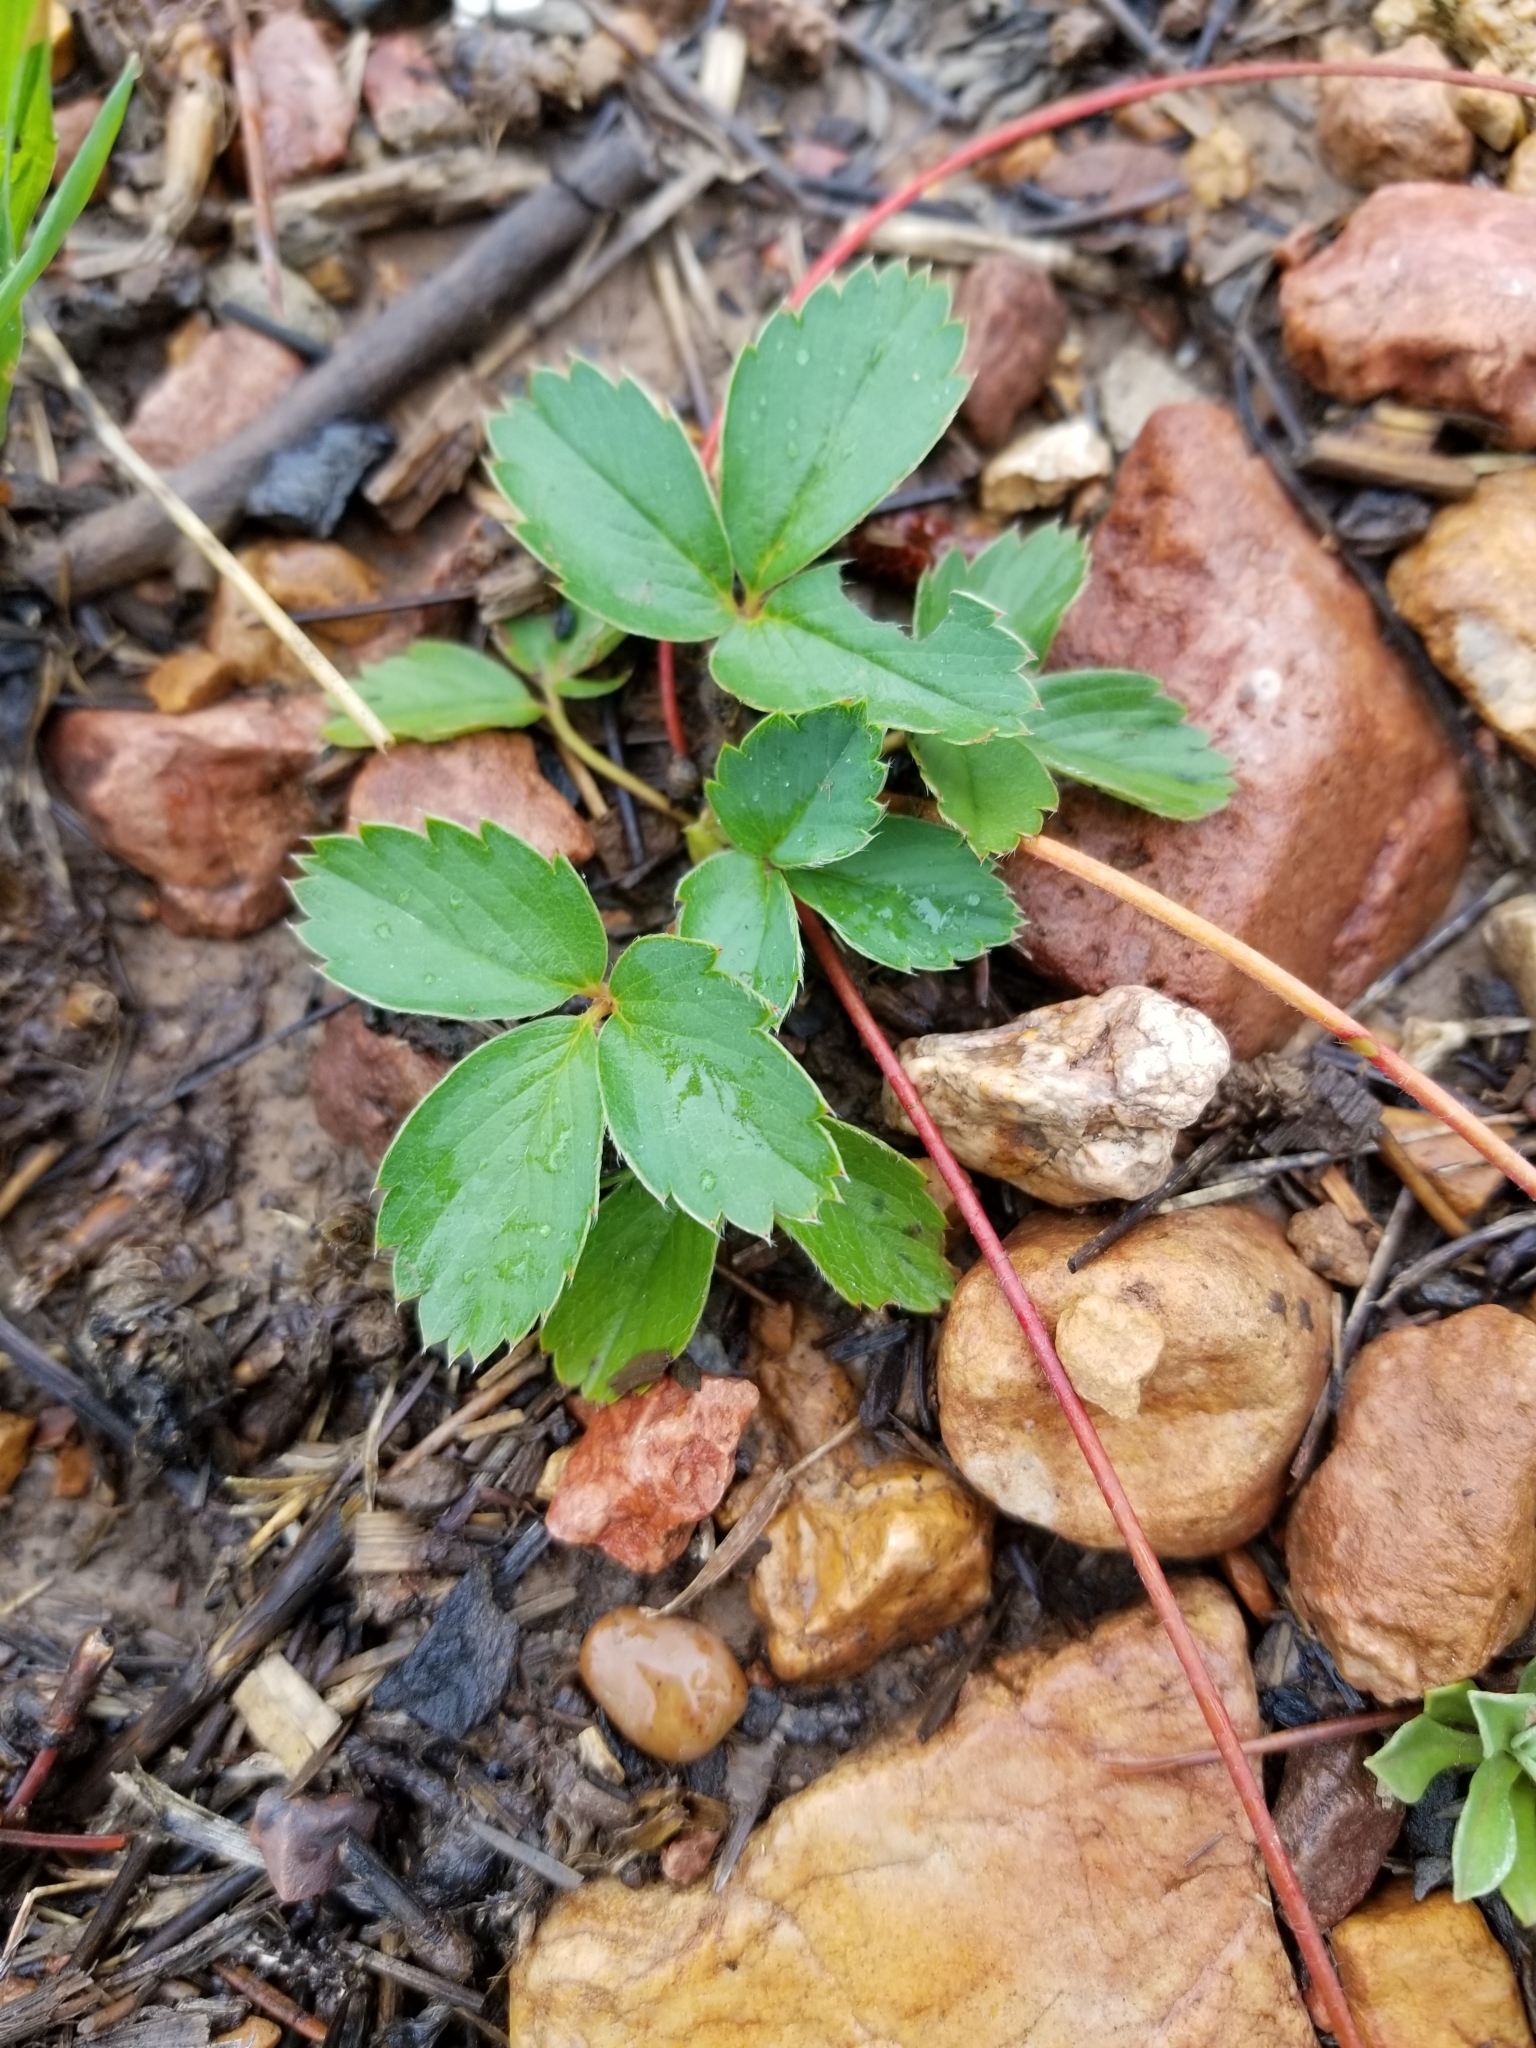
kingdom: Plantae
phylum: Tracheophyta
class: Magnoliopsida
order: Rosales
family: Rosaceae
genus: Fragaria
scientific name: Fragaria virginiana
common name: Thickleaved wild strawberry
